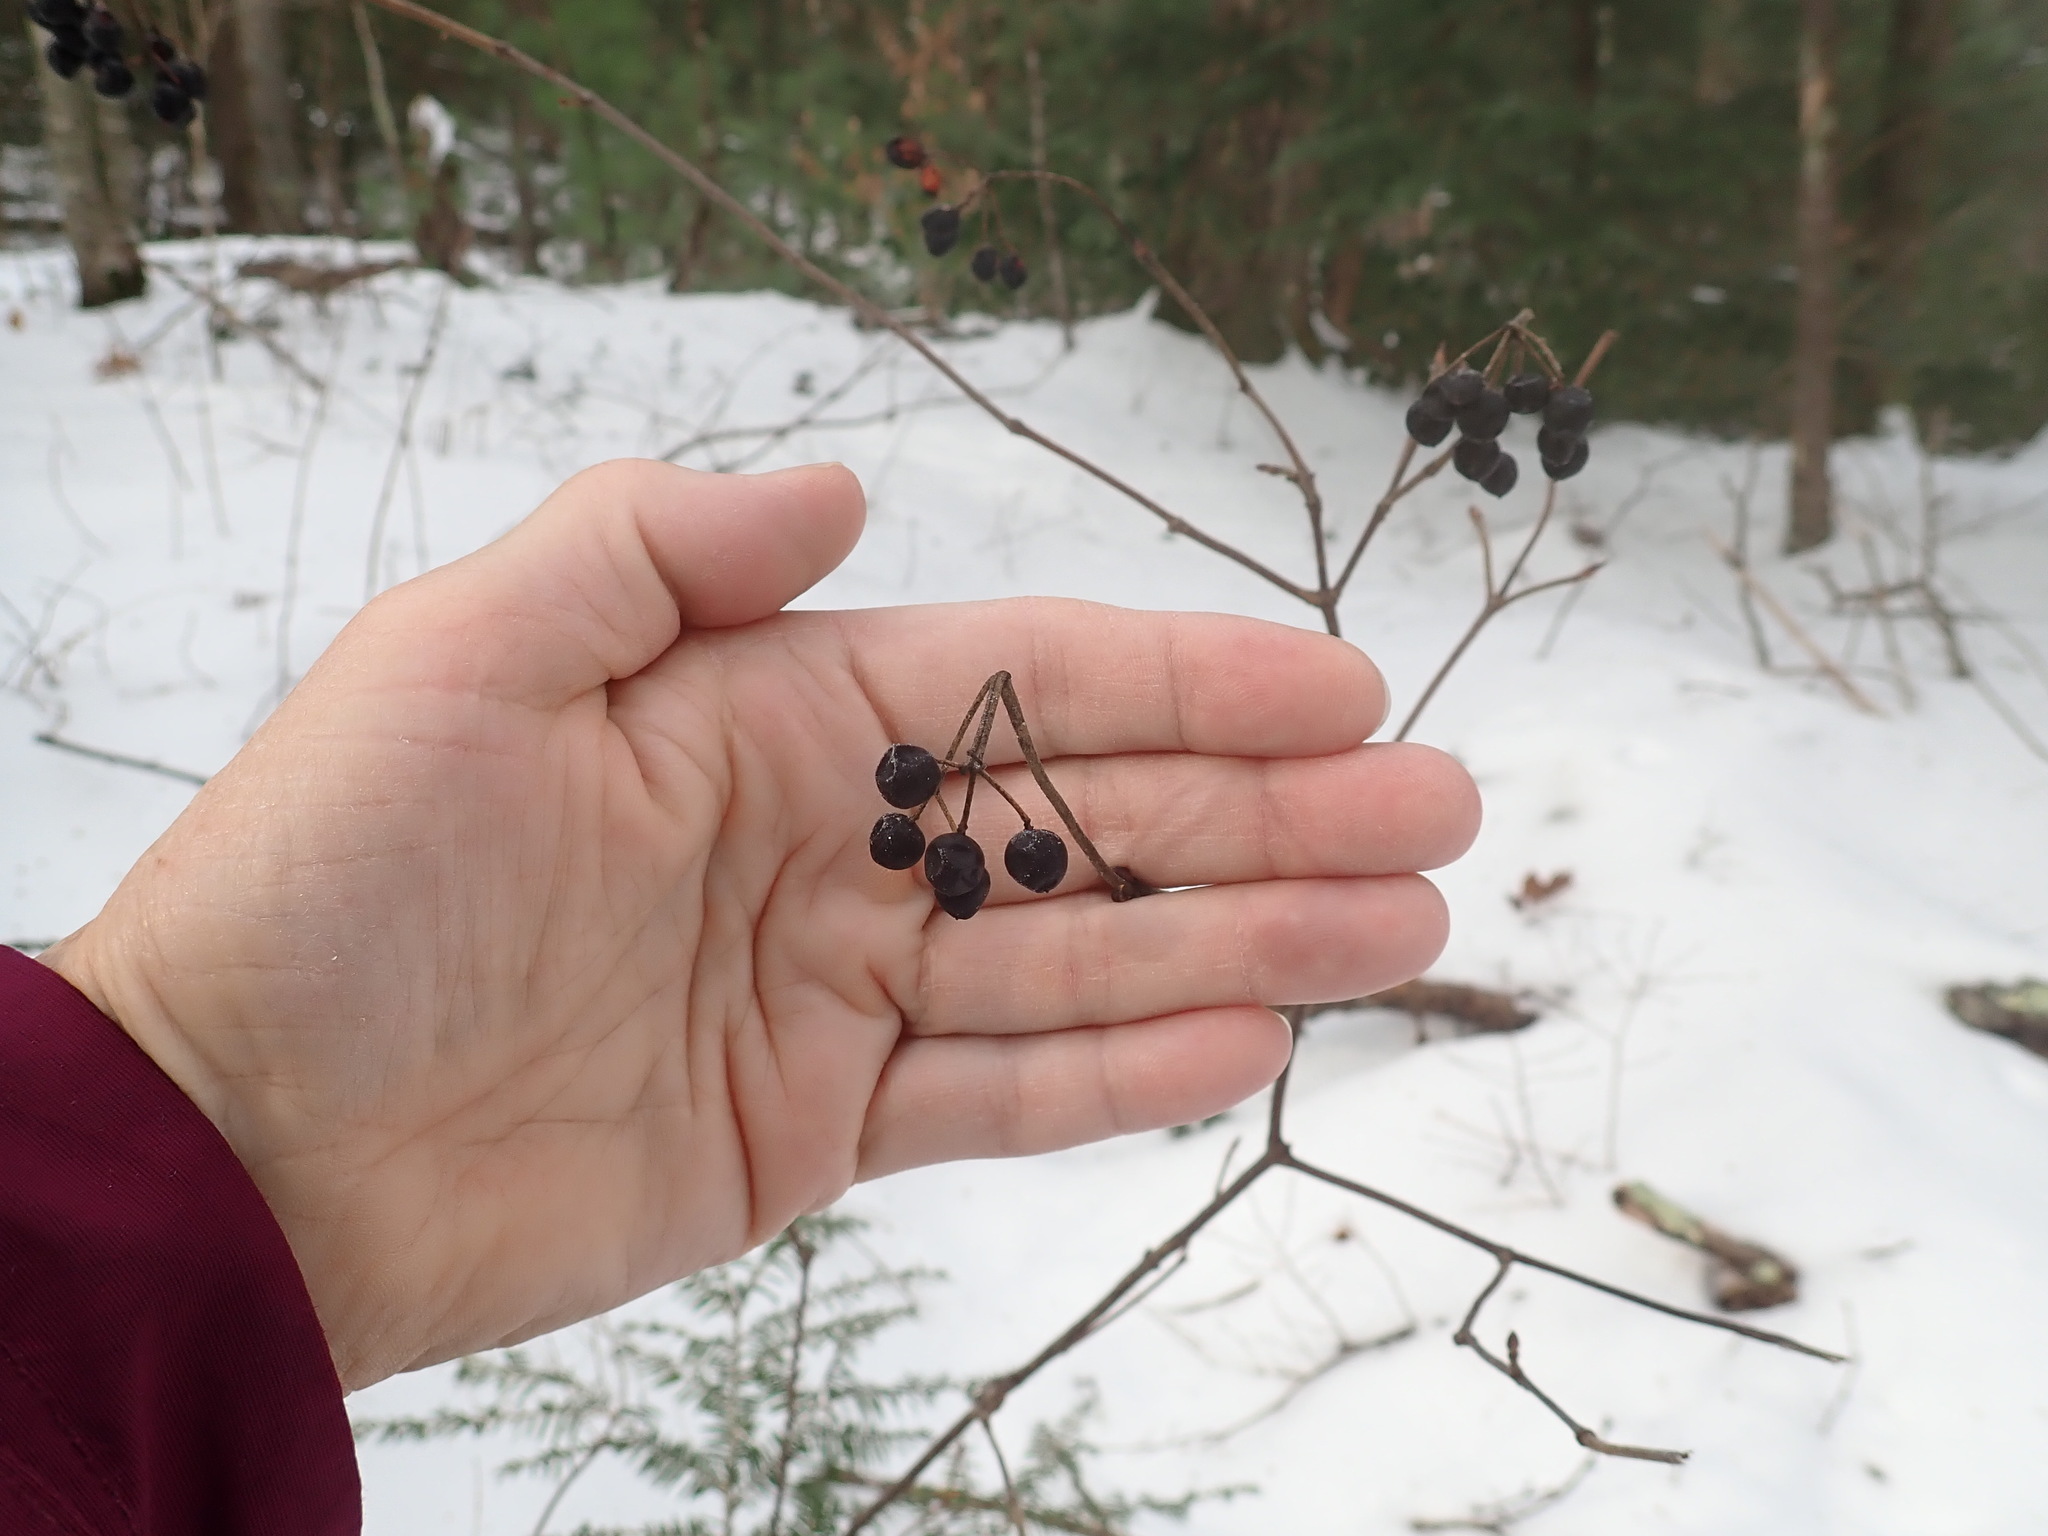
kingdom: Plantae
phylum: Tracheophyta
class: Magnoliopsida
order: Dipsacales
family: Viburnaceae
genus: Viburnum
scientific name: Viburnum acerifolium
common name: Dockmackie
